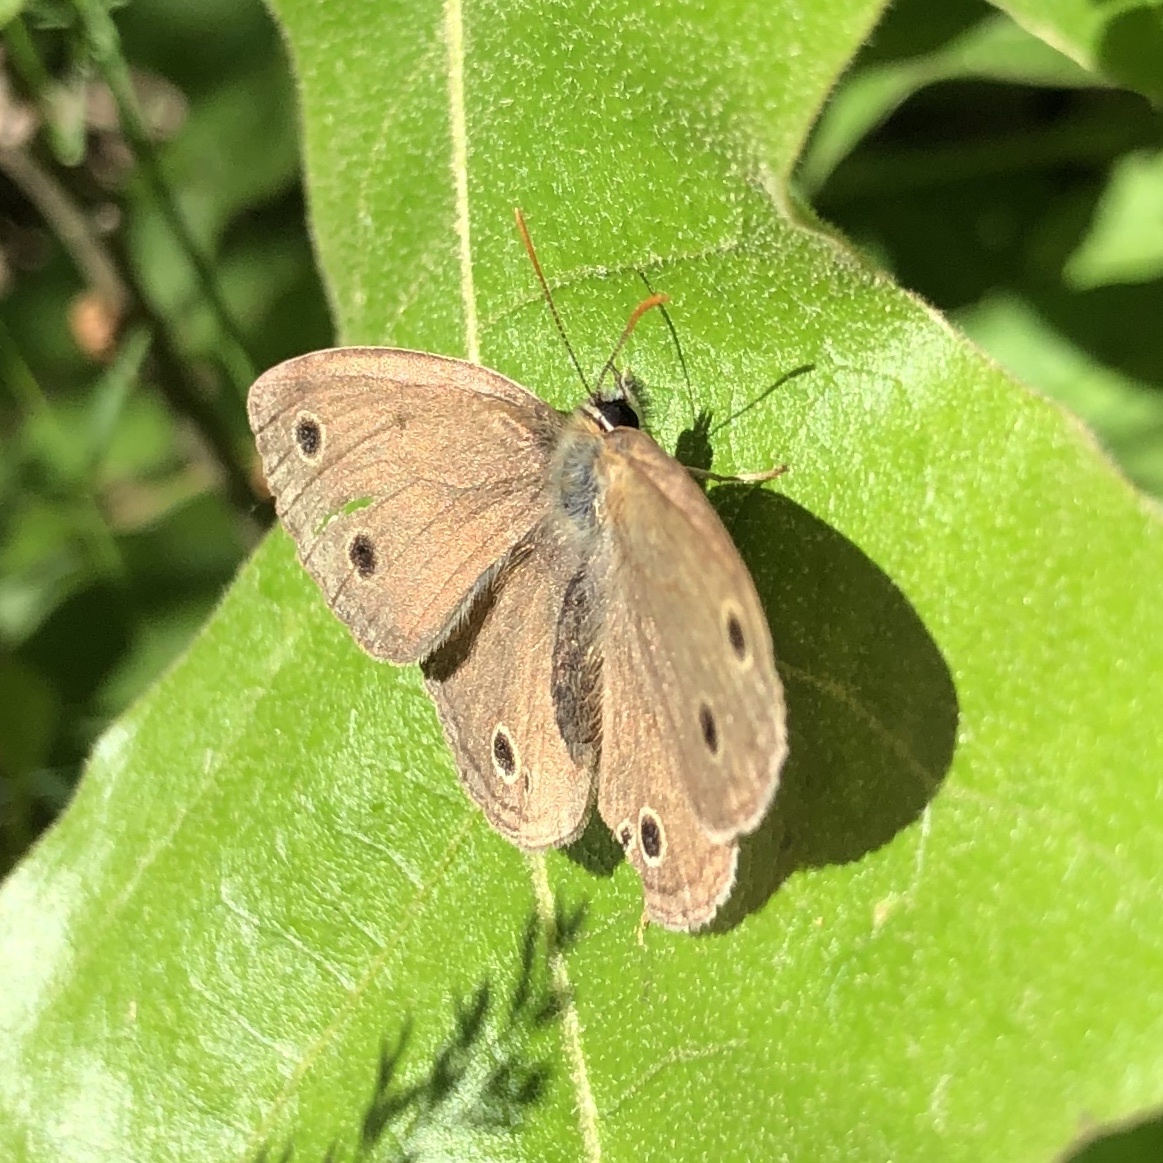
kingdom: Animalia
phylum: Arthropoda
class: Insecta
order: Lepidoptera
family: Nymphalidae
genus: Euptychia
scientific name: Euptychia cymela
